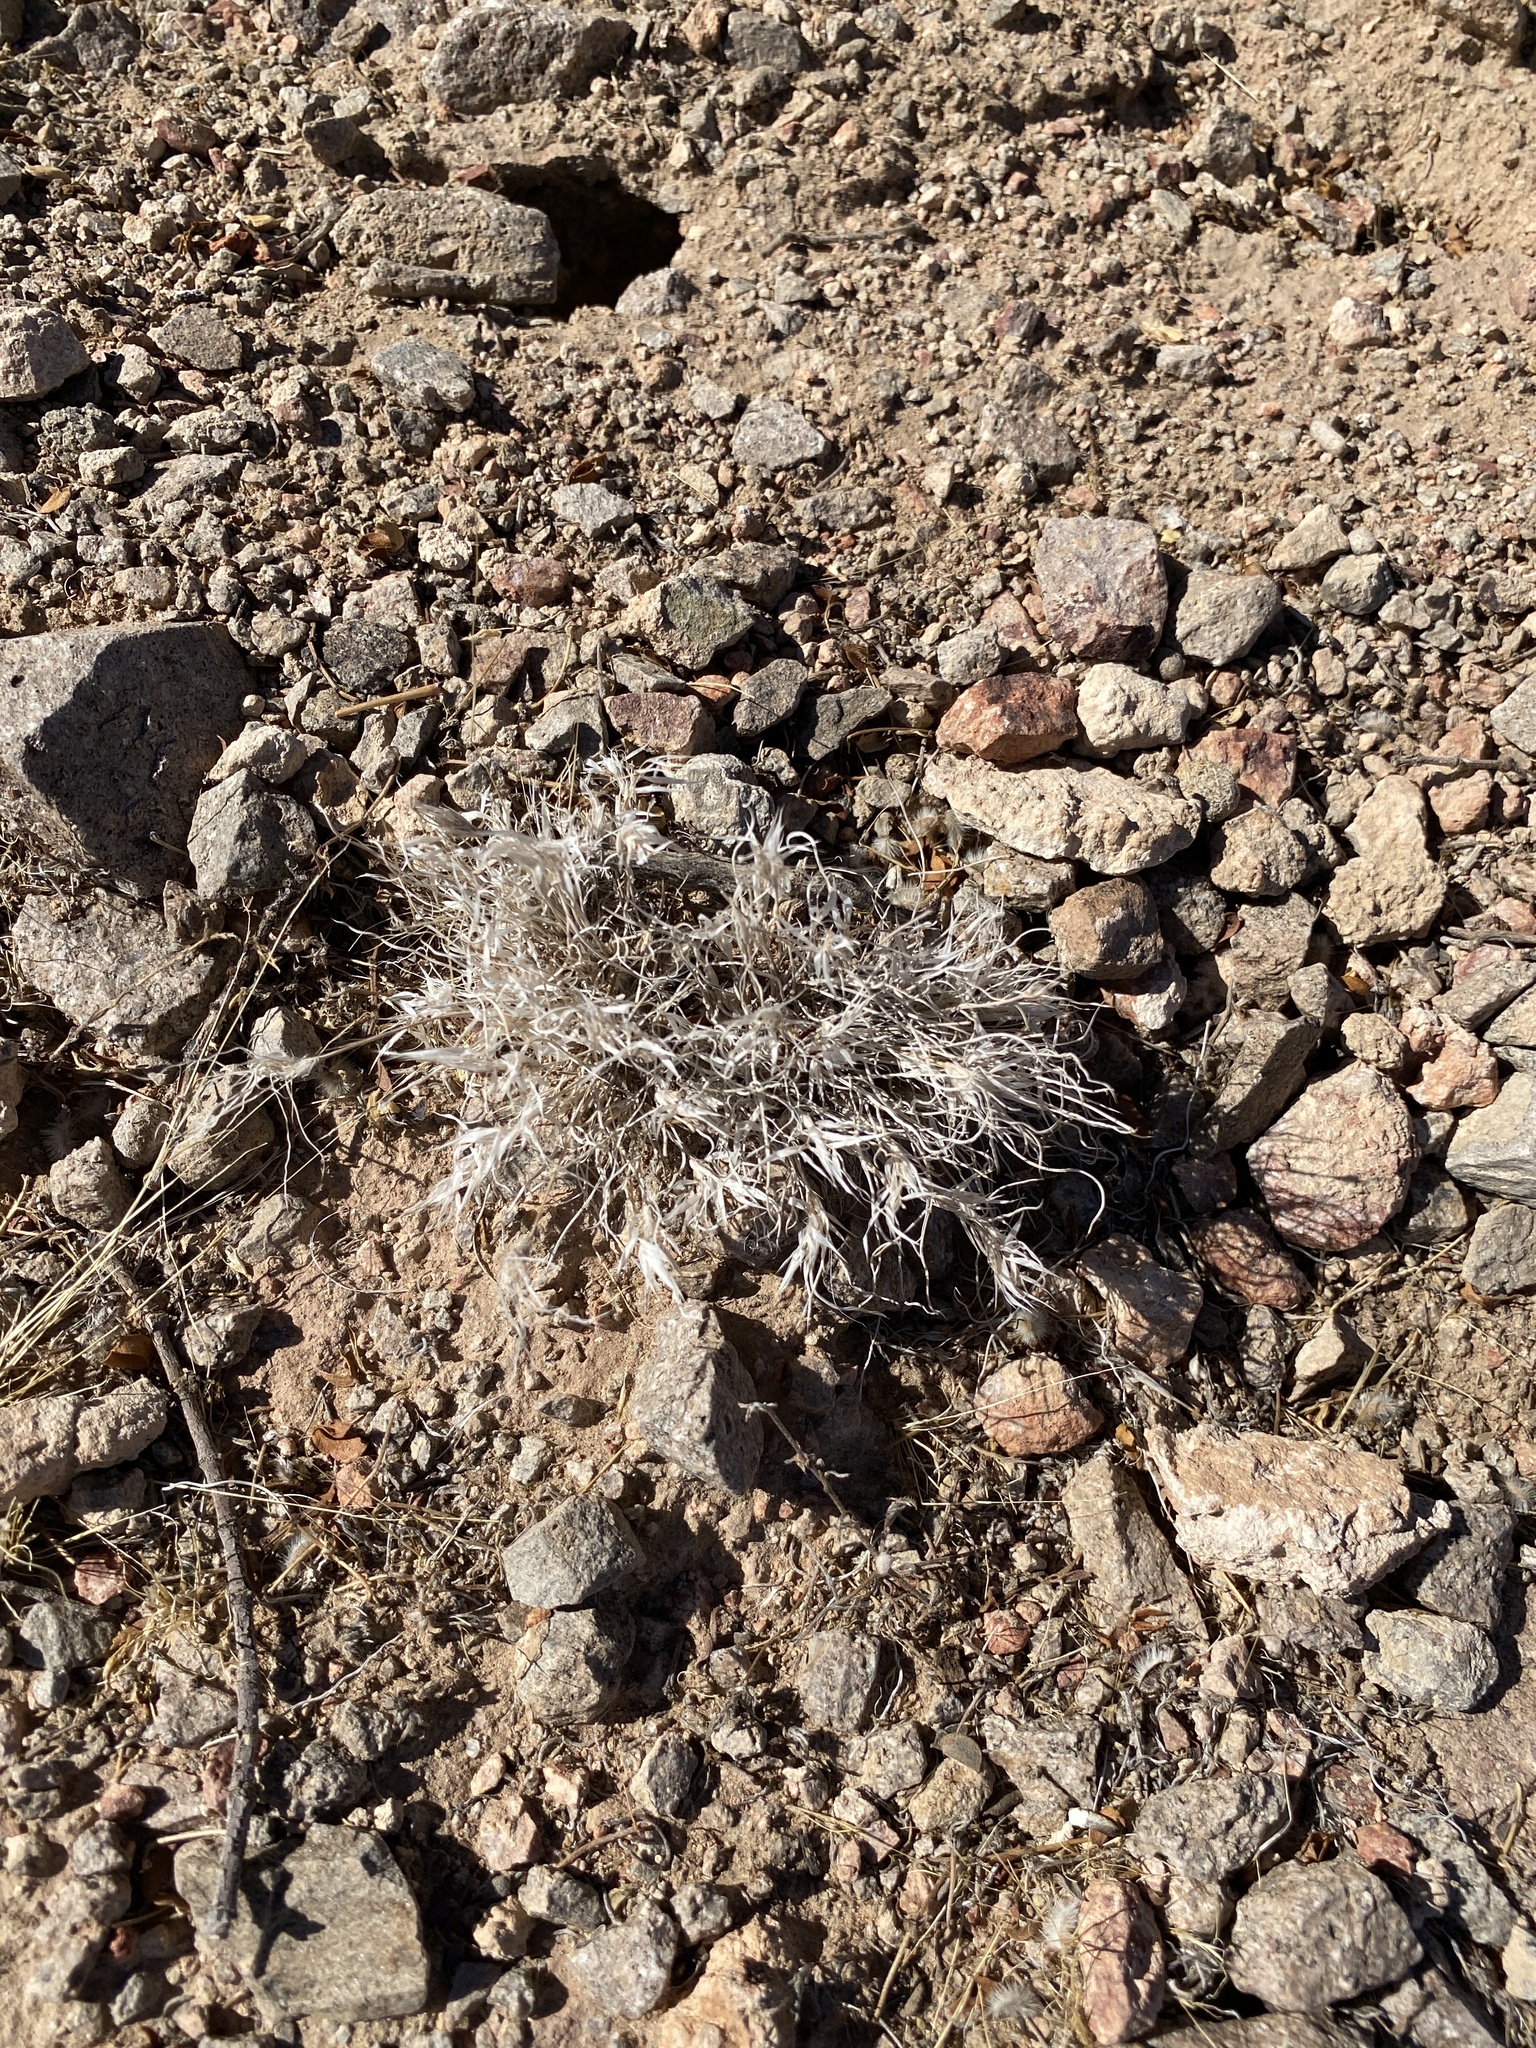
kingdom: Plantae
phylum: Tracheophyta
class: Liliopsida
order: Poales
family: Poaceae
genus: Dasyochloa
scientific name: Dasyochloa pulchella
